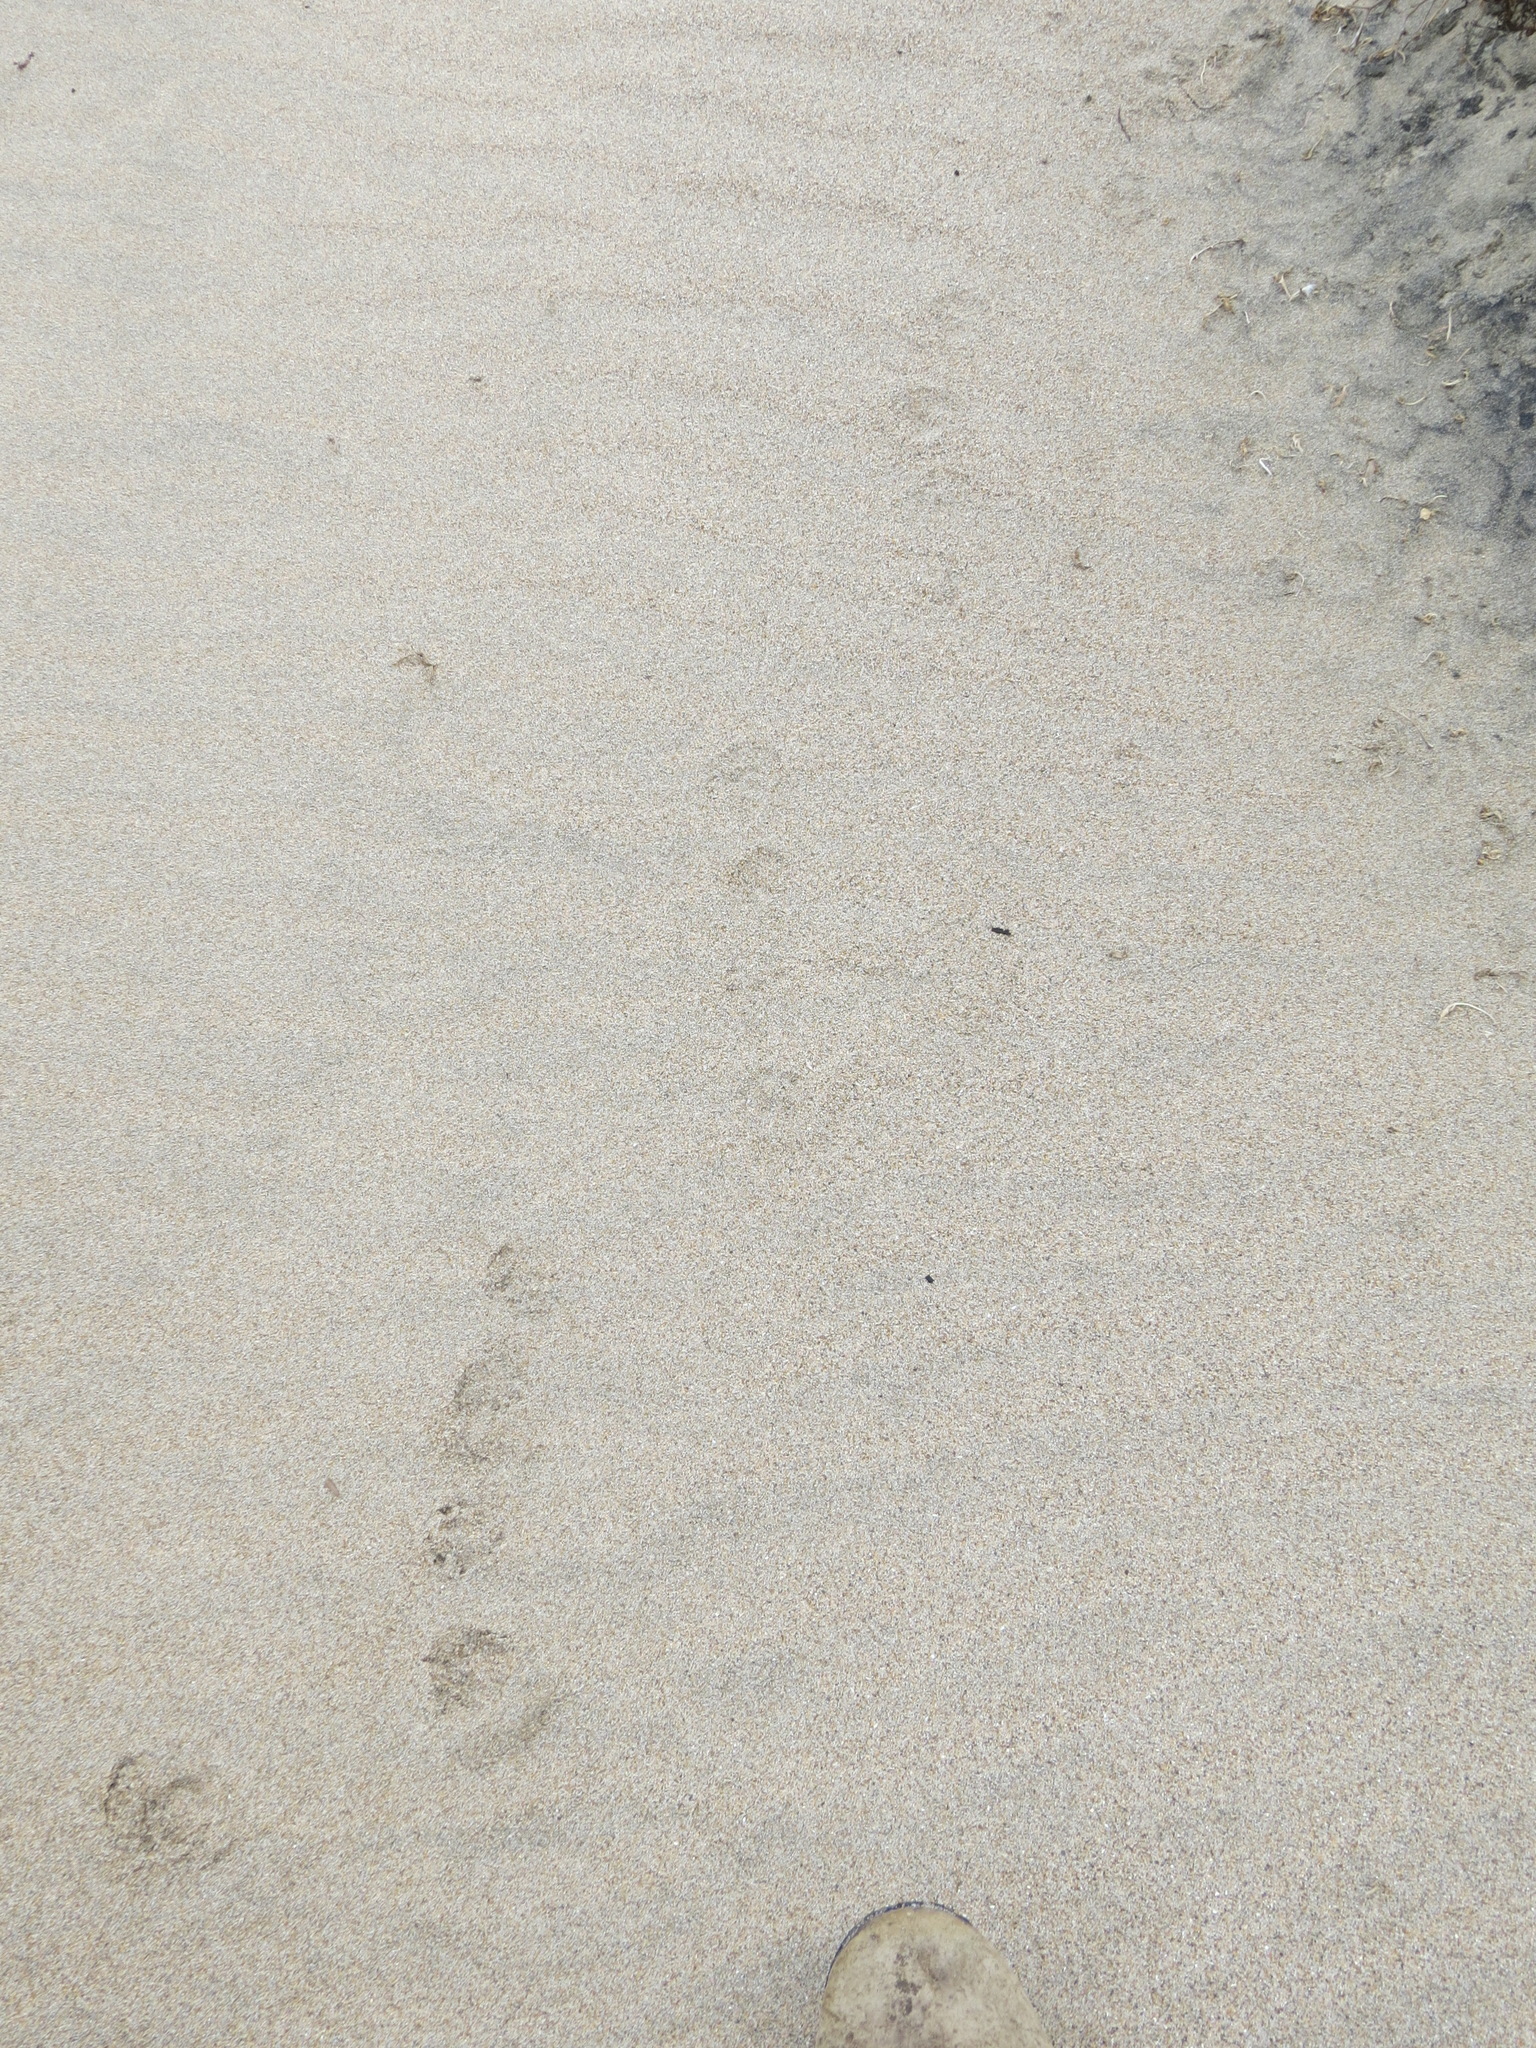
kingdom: Animalia
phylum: Chordata
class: Mammalia
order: Carnivora
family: Mephitidae
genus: Mephitis
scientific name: Mephitis mephitis
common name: Striped skunk
